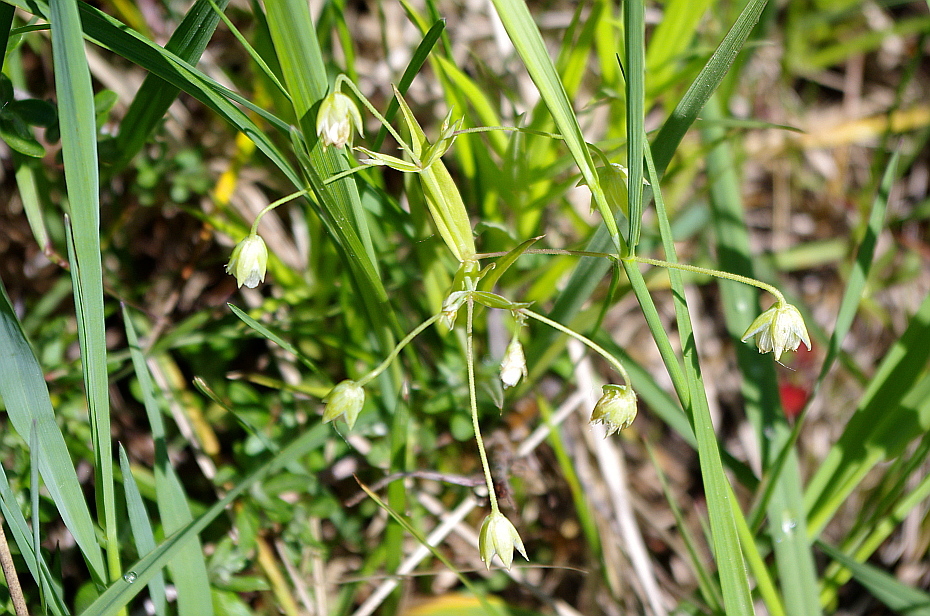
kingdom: Plantae
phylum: Tracheophyta
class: Magnoliopsida
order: Caryophyllales
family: Caryophyllaceae
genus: Rabelera
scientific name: Rabelera holostea
